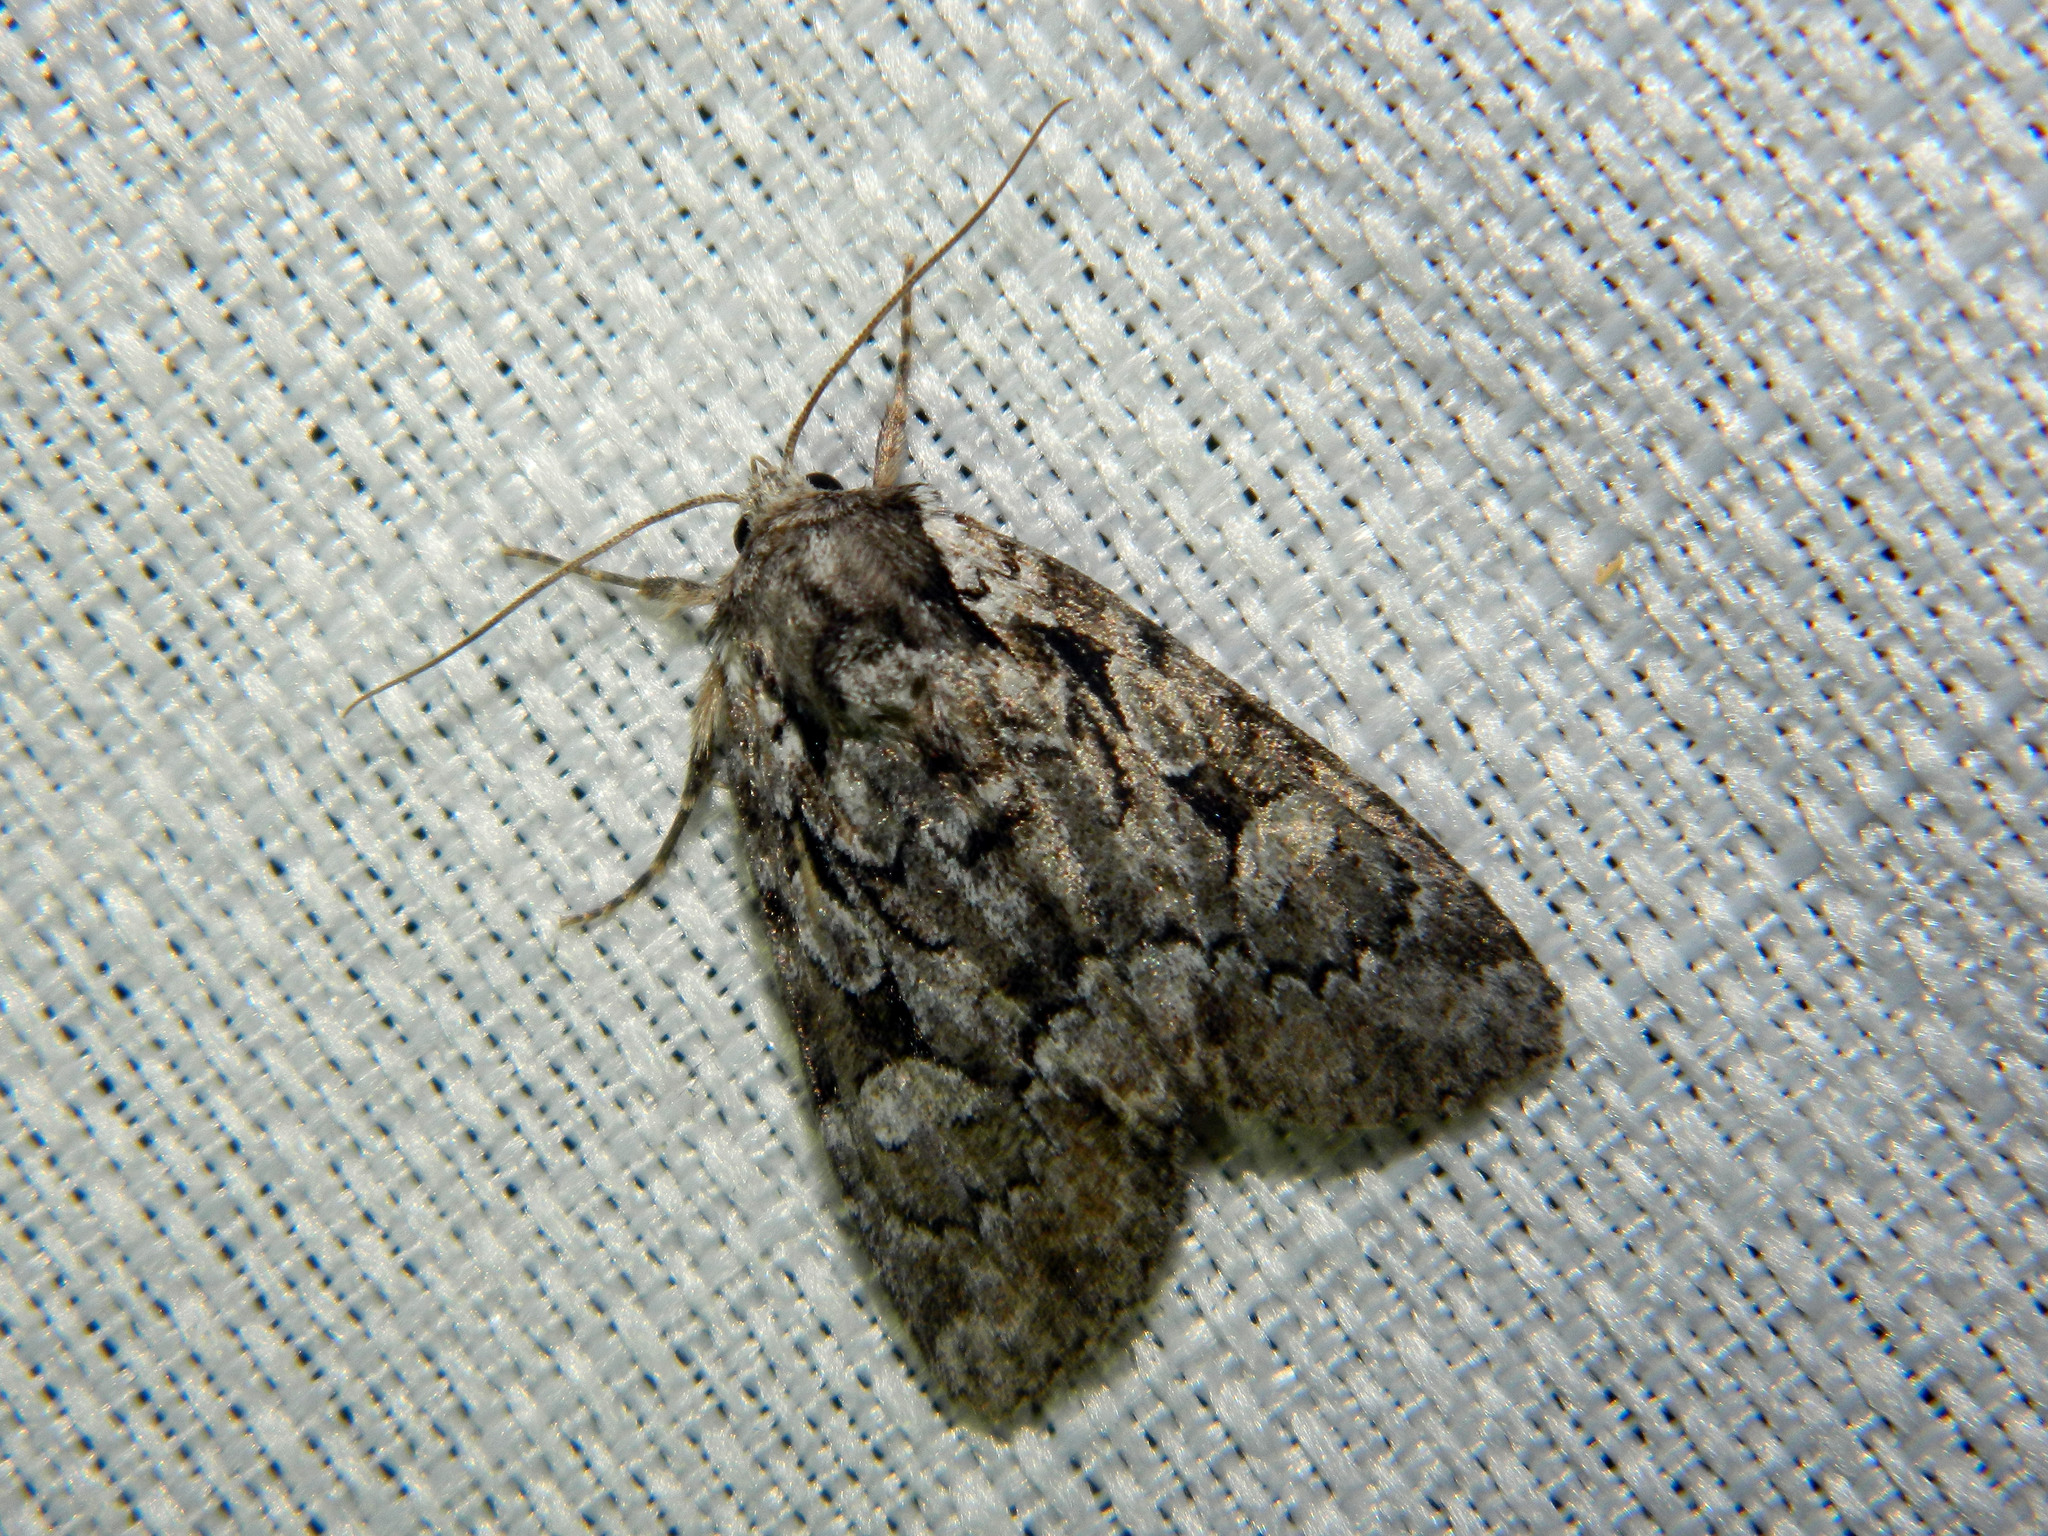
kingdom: Animalia
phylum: Arthropoda
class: Insecta
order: Lepidoptera
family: Noctuidae
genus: Aplectoides
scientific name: Aplectoides condita
